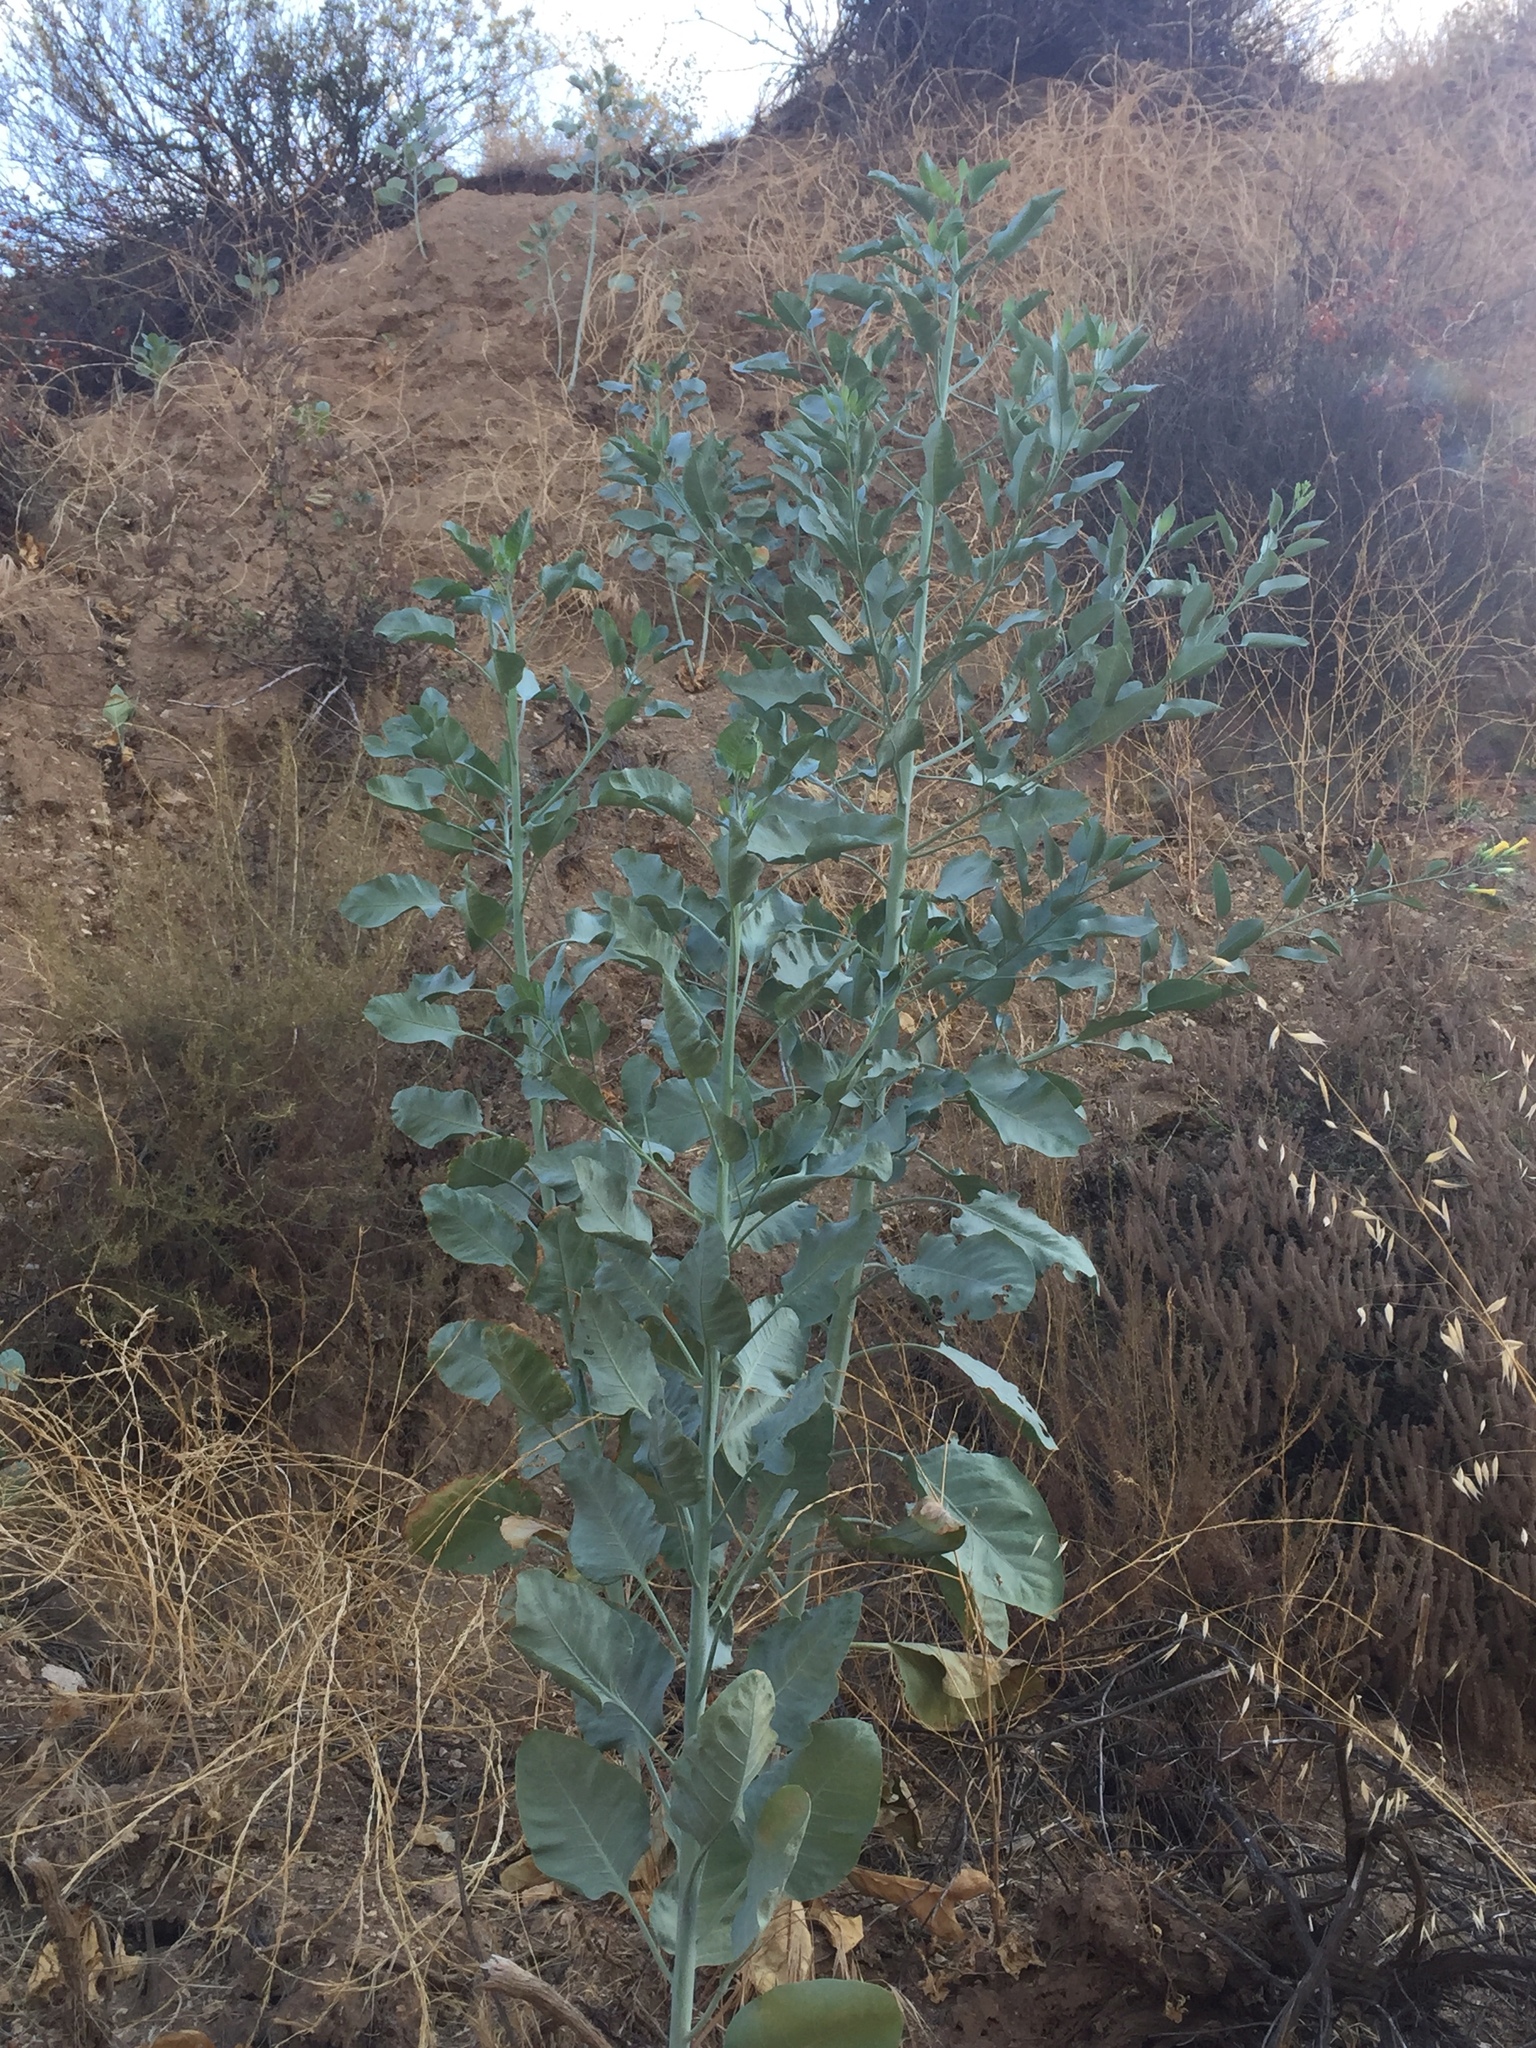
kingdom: Plantae
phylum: Tracheophyta
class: Magnoliopsida
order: Solanales
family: Solanaceae
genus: Nicotiana
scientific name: Nicotiana glauca
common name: Tree tobacco
